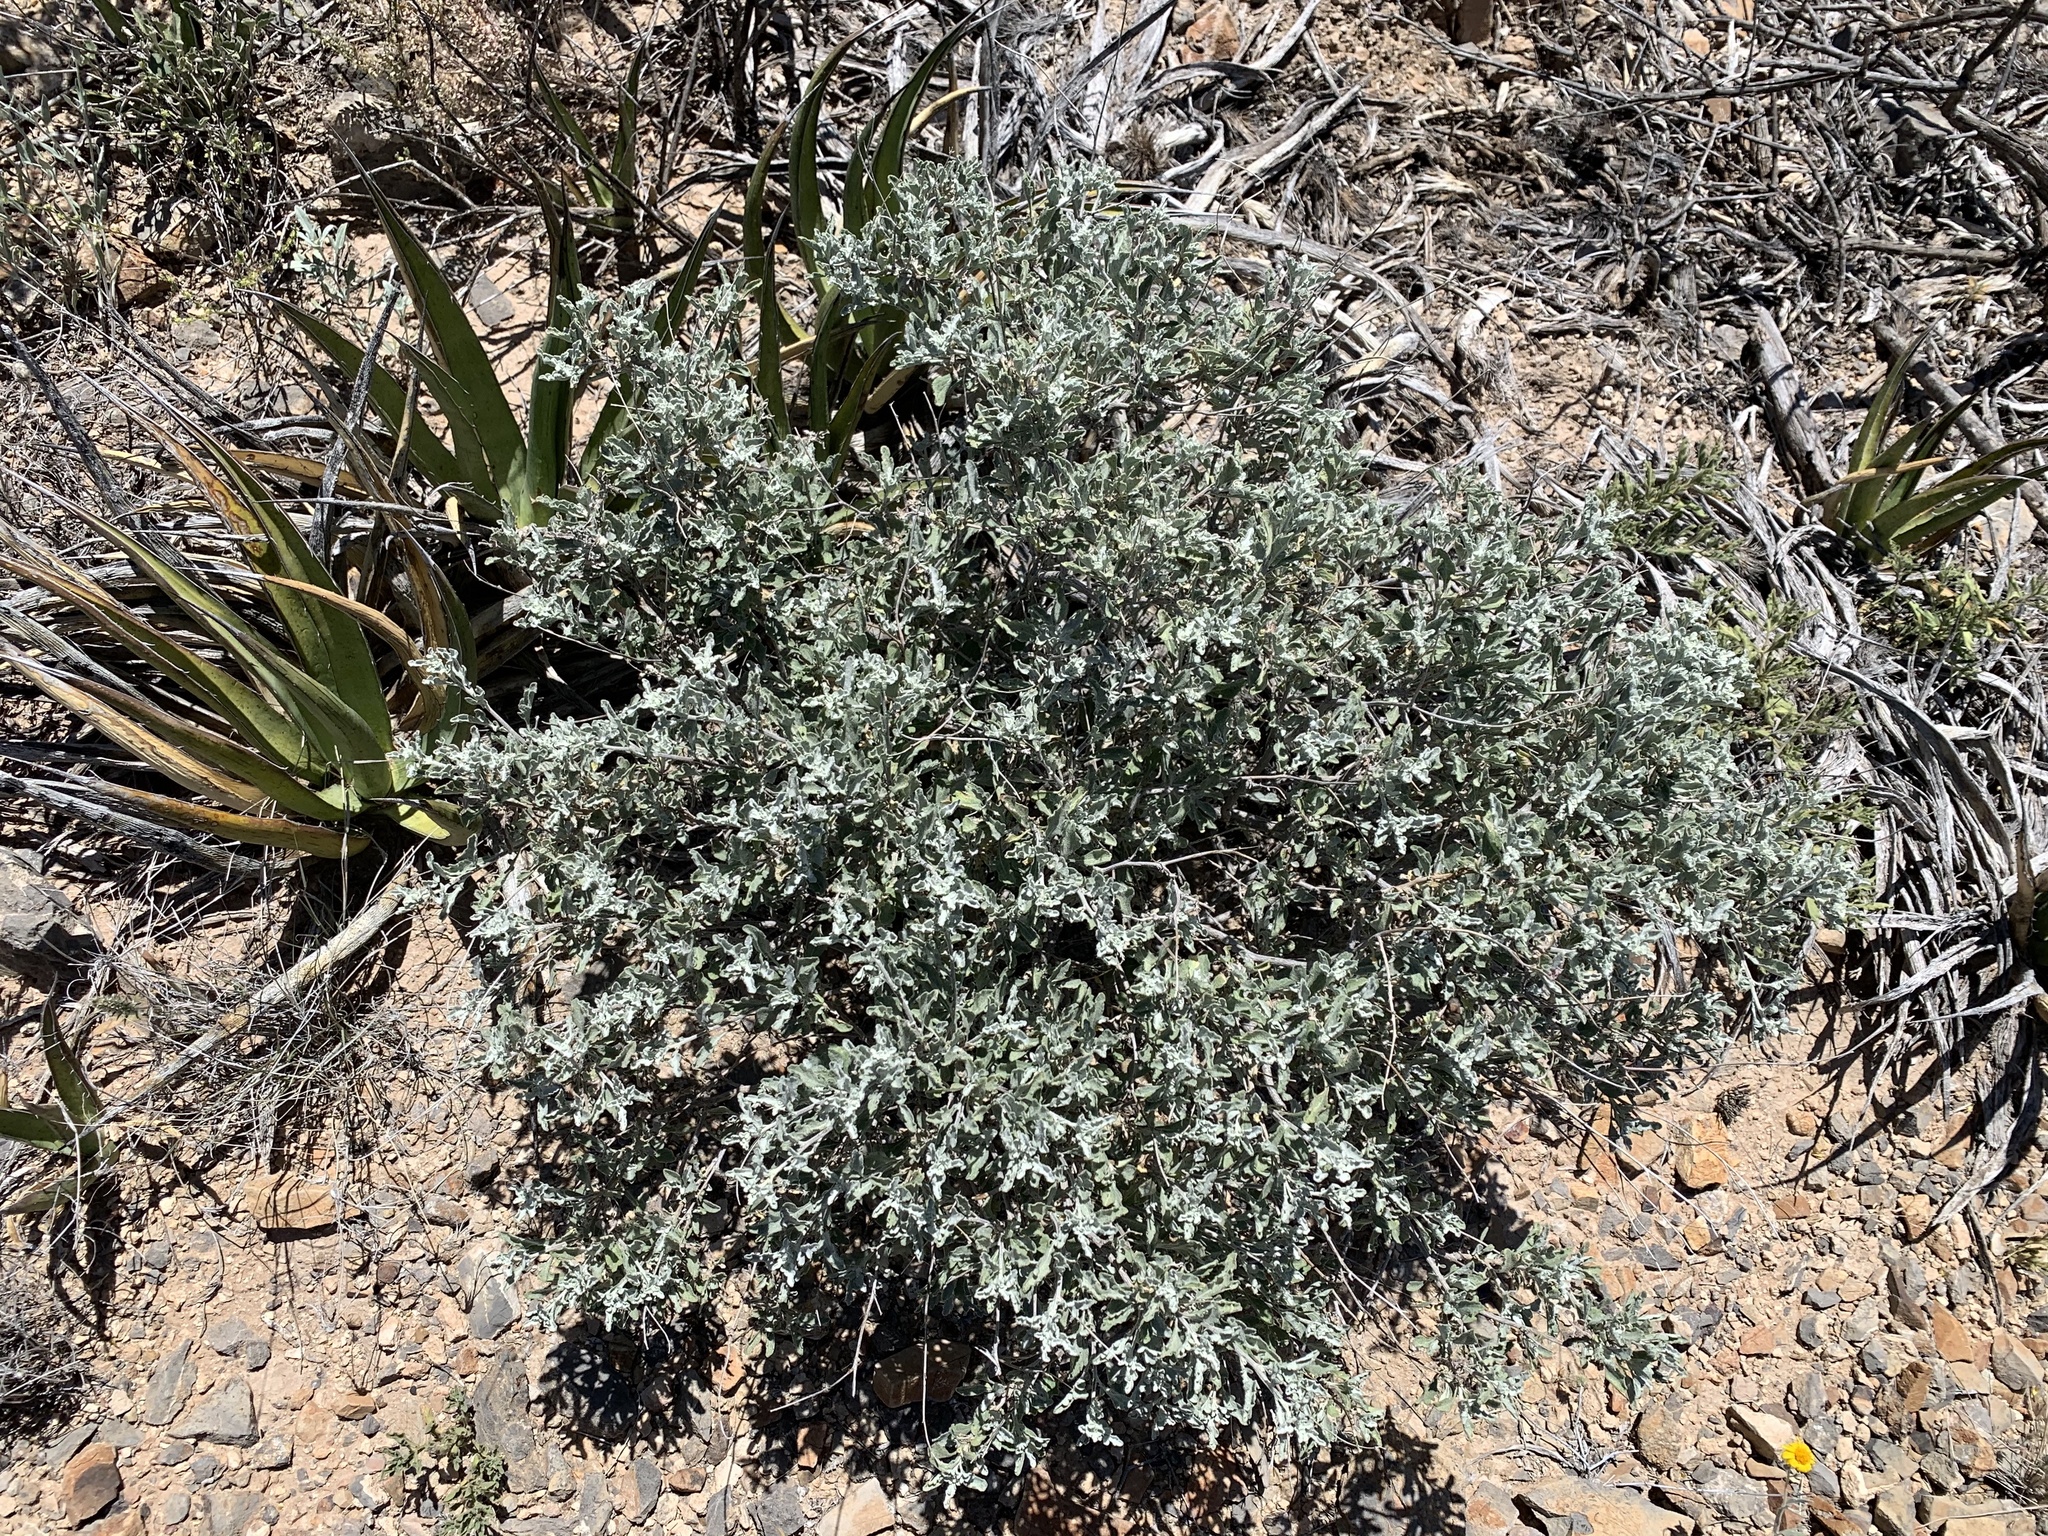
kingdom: Plantae
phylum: Tracheophyta
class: Magnoliopsida
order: Asterales
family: Asteraceae
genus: Parthenium
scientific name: Parthenium incanum
